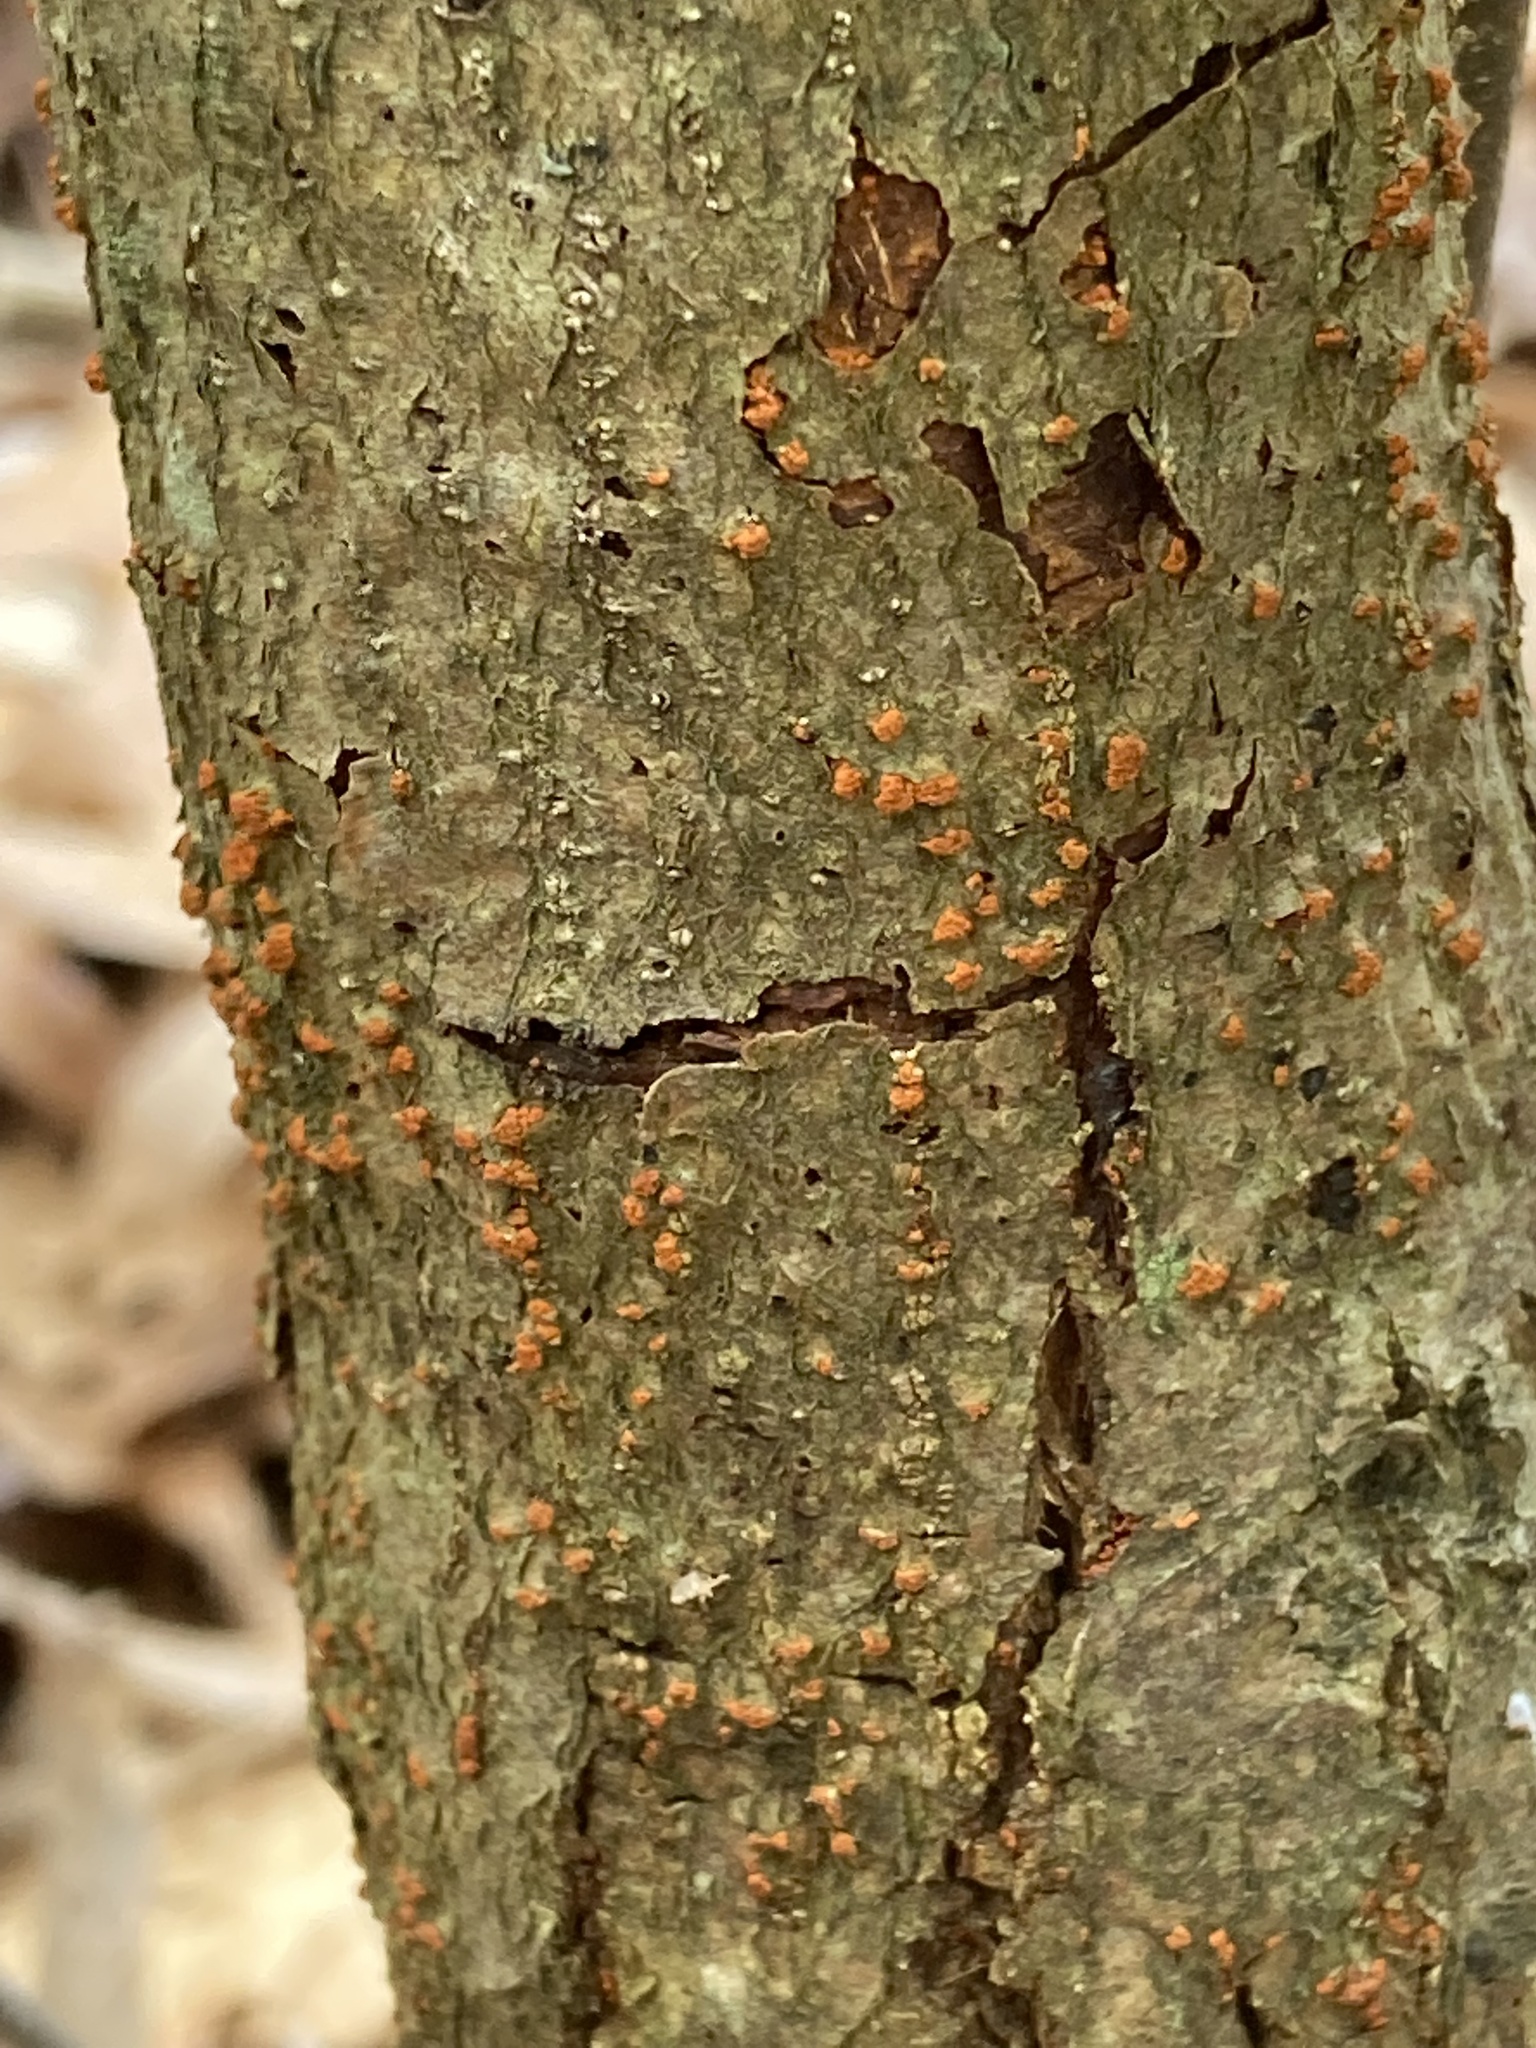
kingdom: Fungi
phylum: Ascomycota
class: Sordariomycetes
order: Diaporthales
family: Cryphonectriaceae
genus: Cryphonectria
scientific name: Cryphonectria parasitica
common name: Chestnut blight
